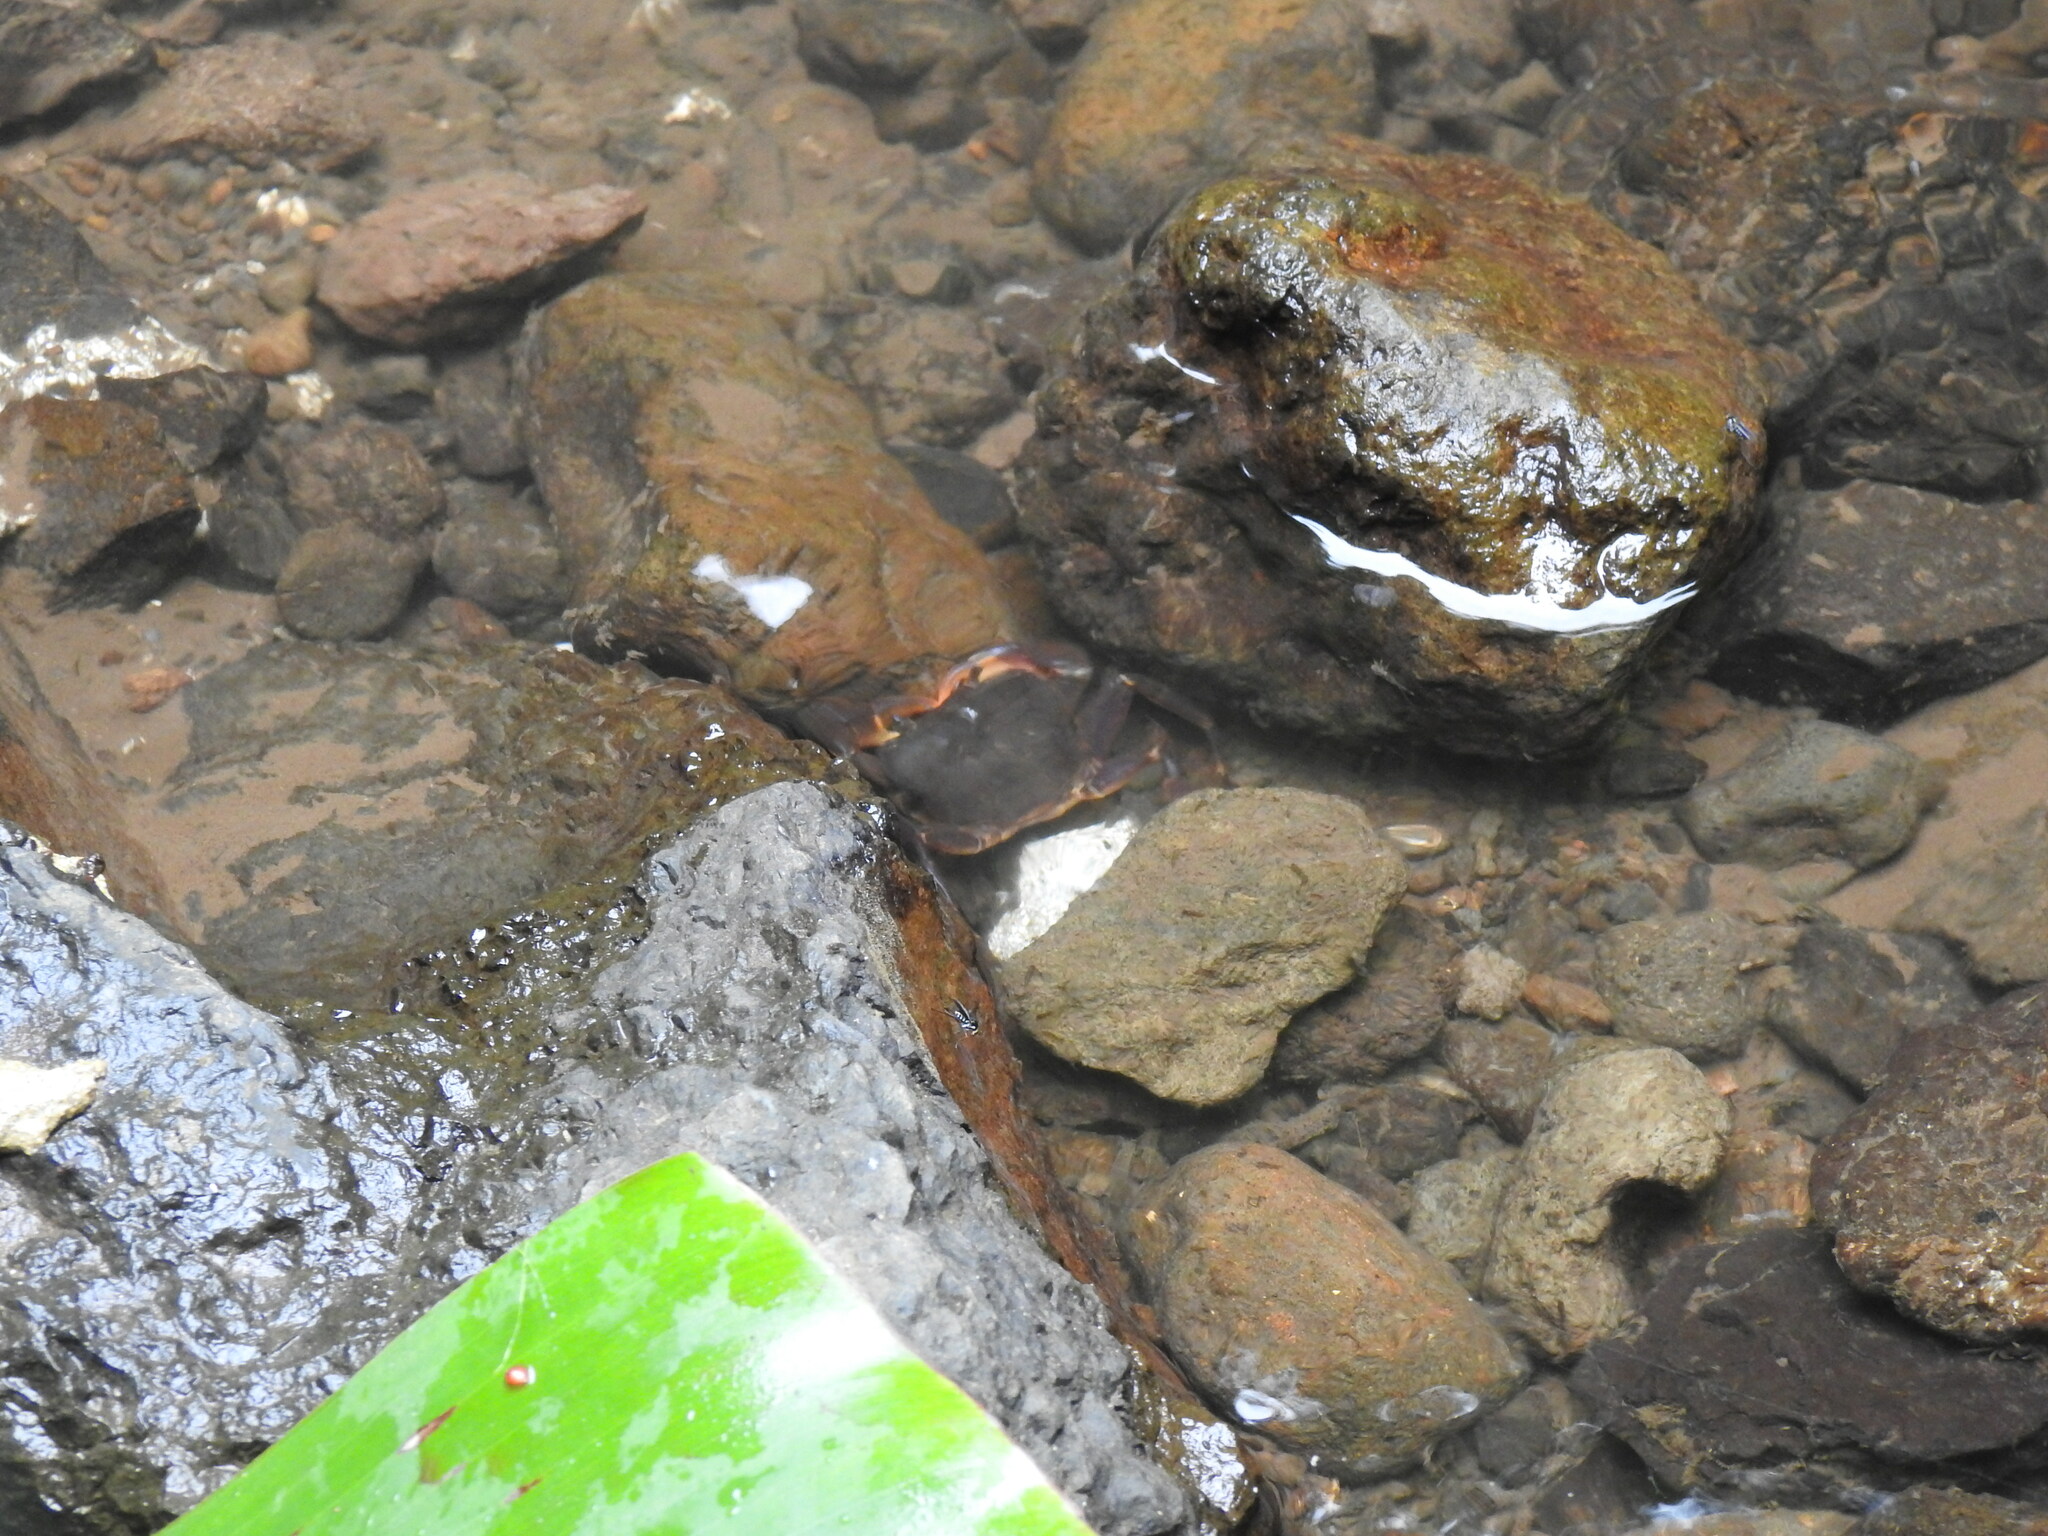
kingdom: Animalia
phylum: Arthropoda
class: Malacostraca
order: Decapoda
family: Potamonautidae
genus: Nesonautes
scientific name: Nesonautes margaritarius
